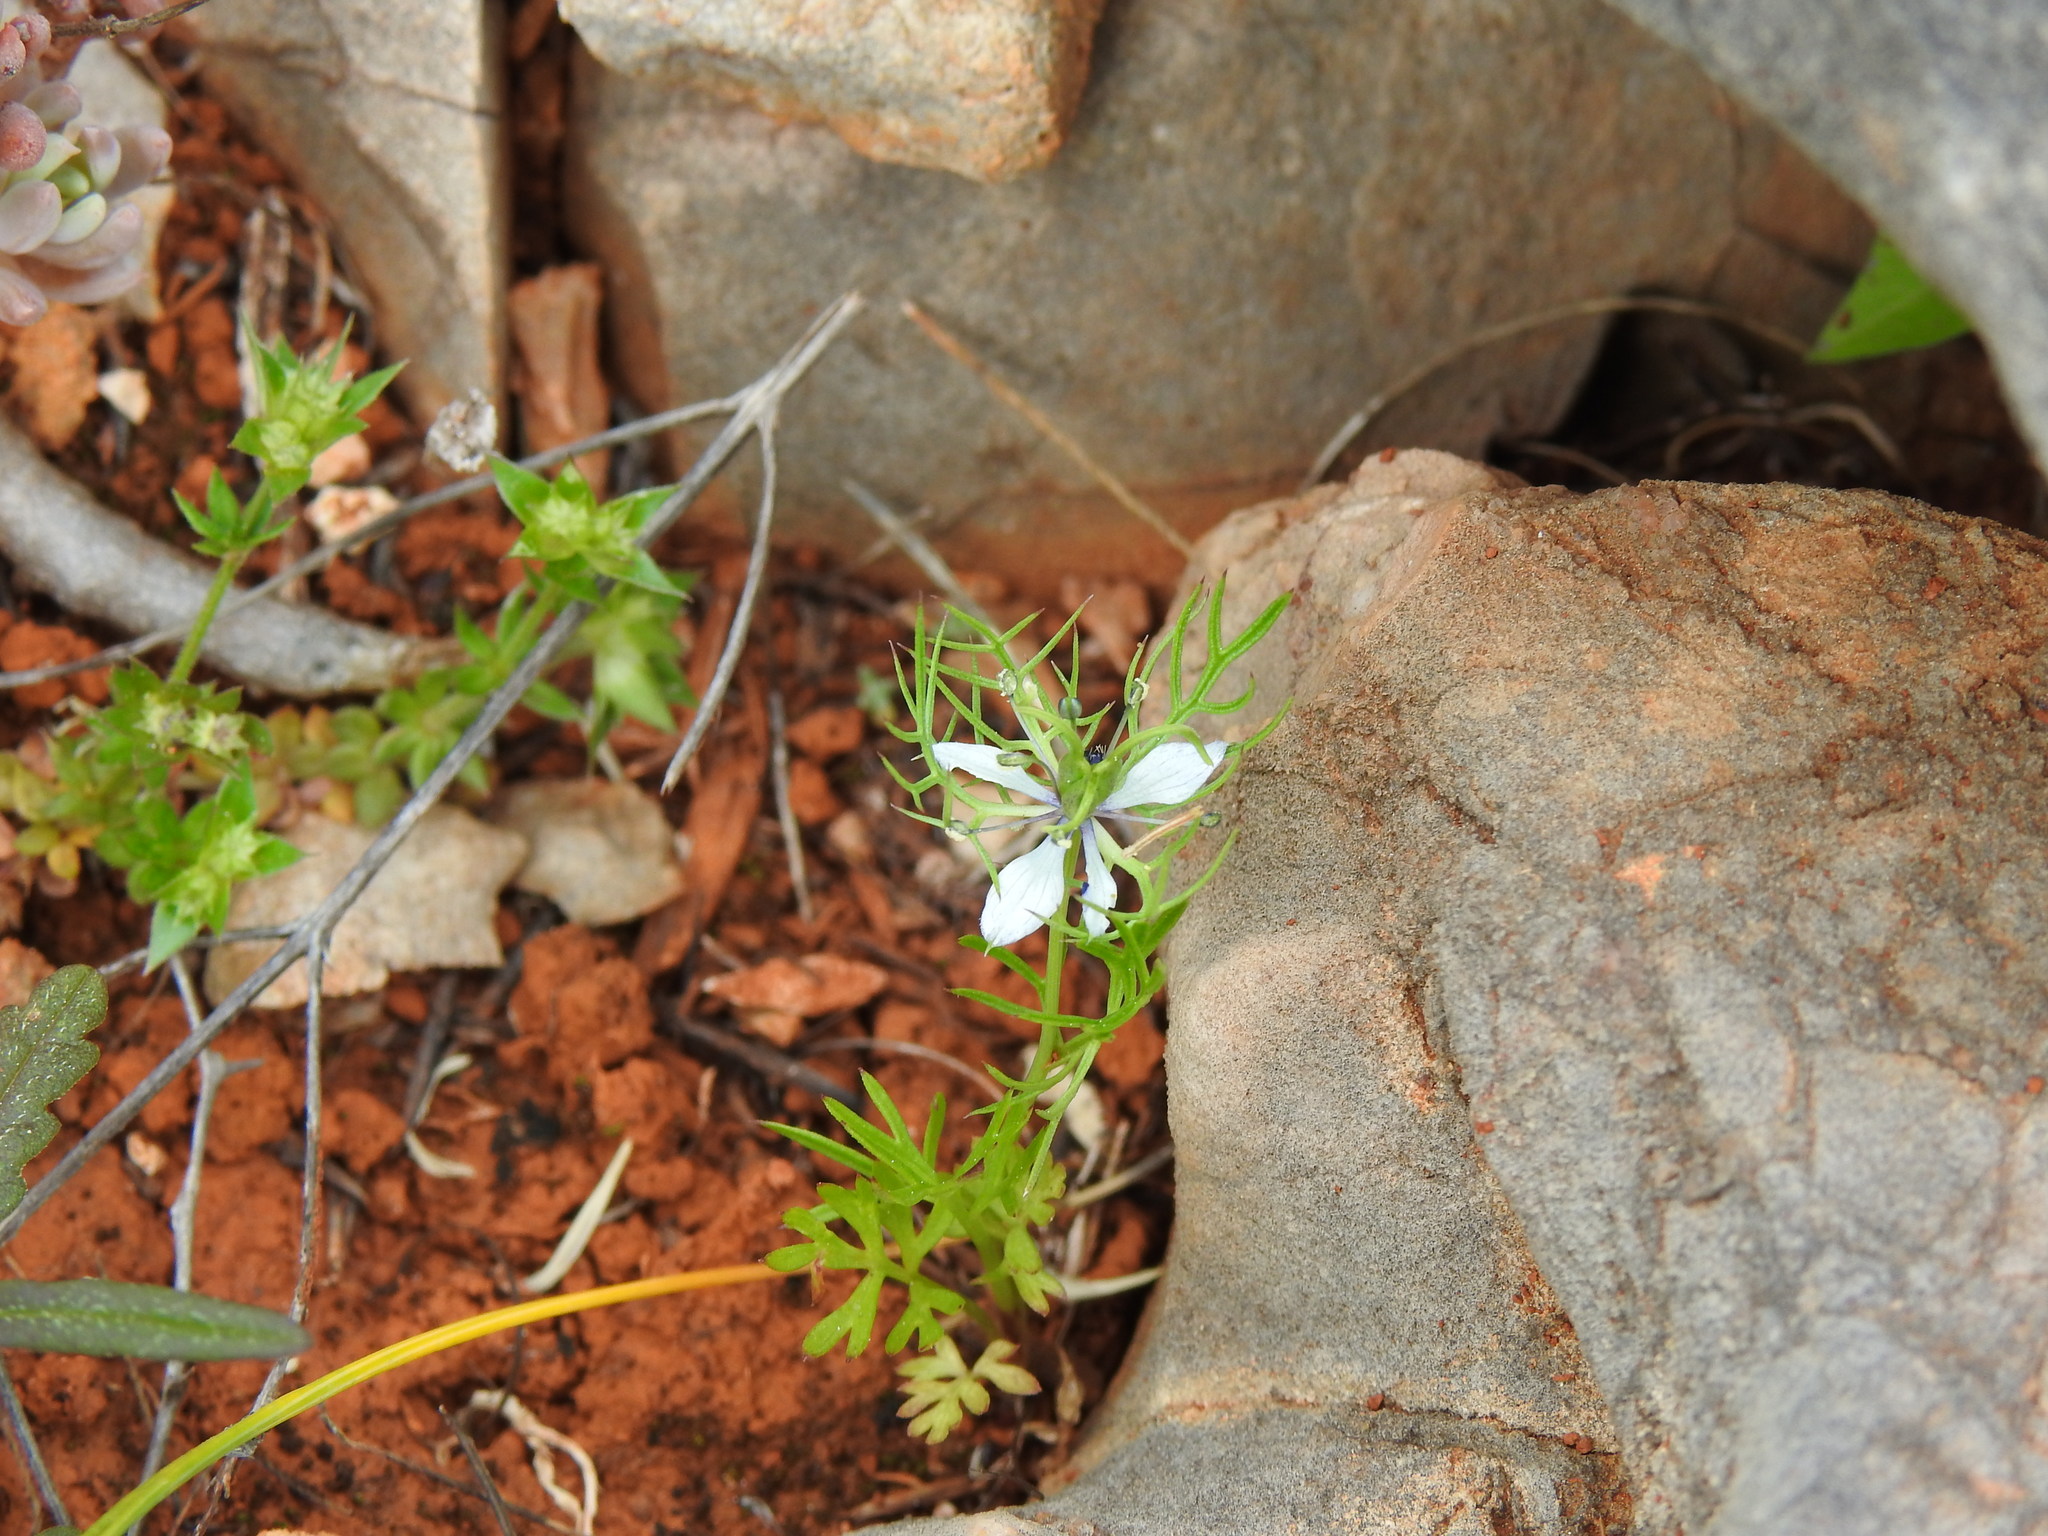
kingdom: Plantae
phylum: Tracheophyta
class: Magnoliopsida
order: Ranunculales
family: Ranunculaceae
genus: Nigella
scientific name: Nigella damascena
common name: Love-in-a-mist
